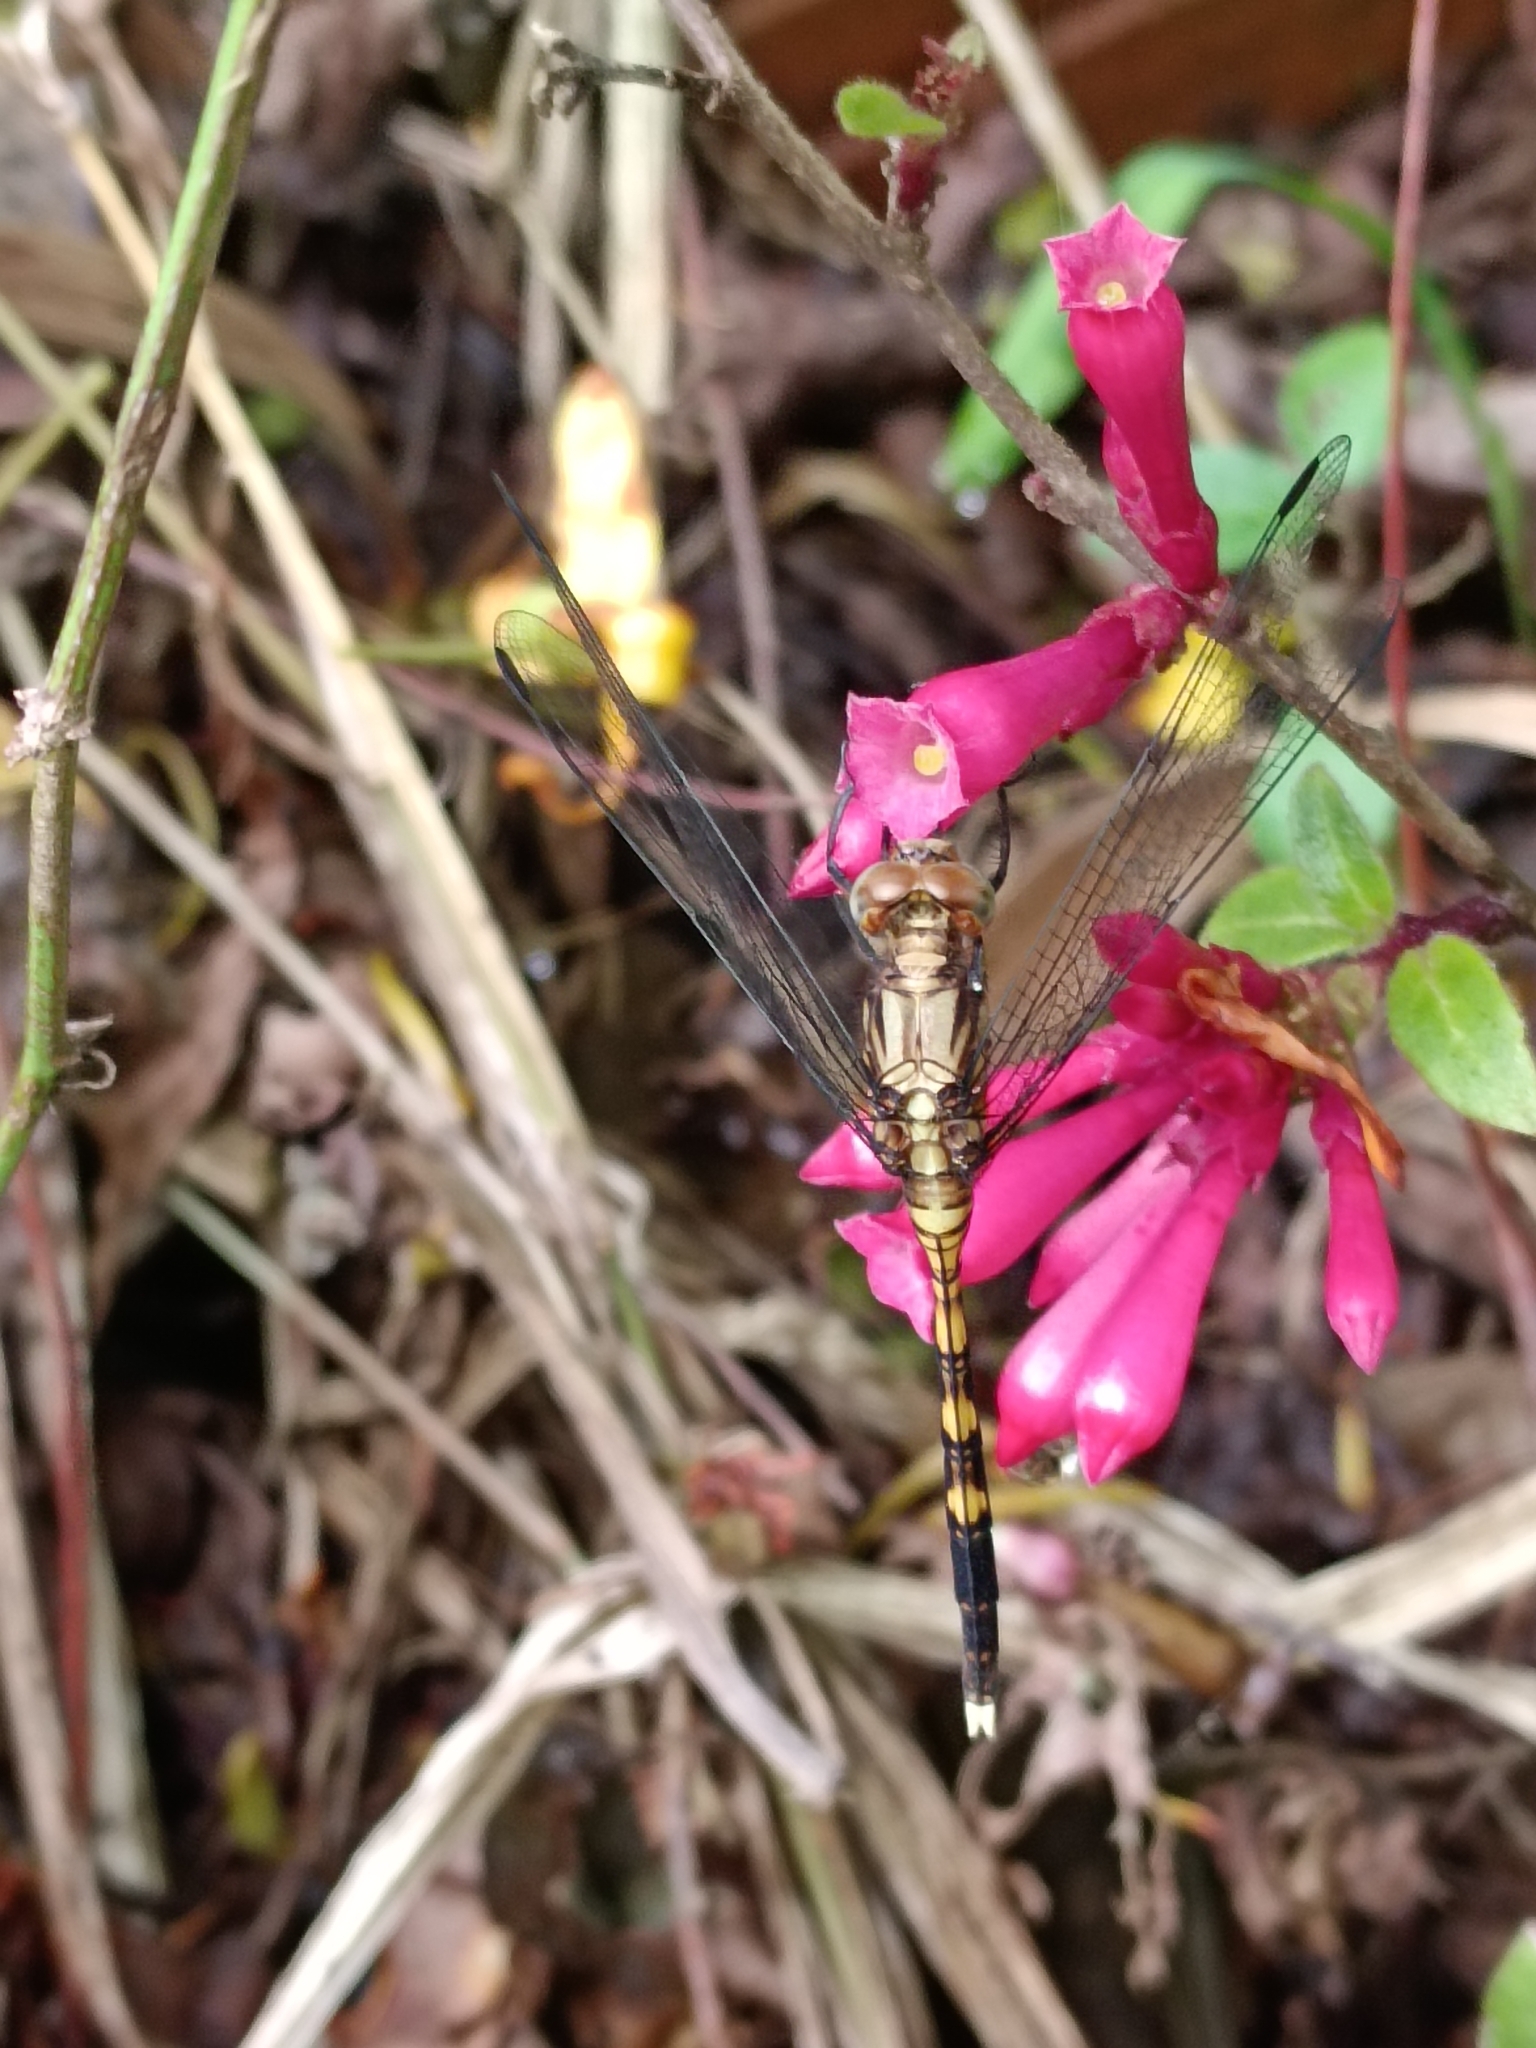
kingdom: Animalia
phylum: Arthropoda
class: Insecta
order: Odonata
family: Libellulidae
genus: Orthetrum
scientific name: Orthetrum julia
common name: Julia skimmer
